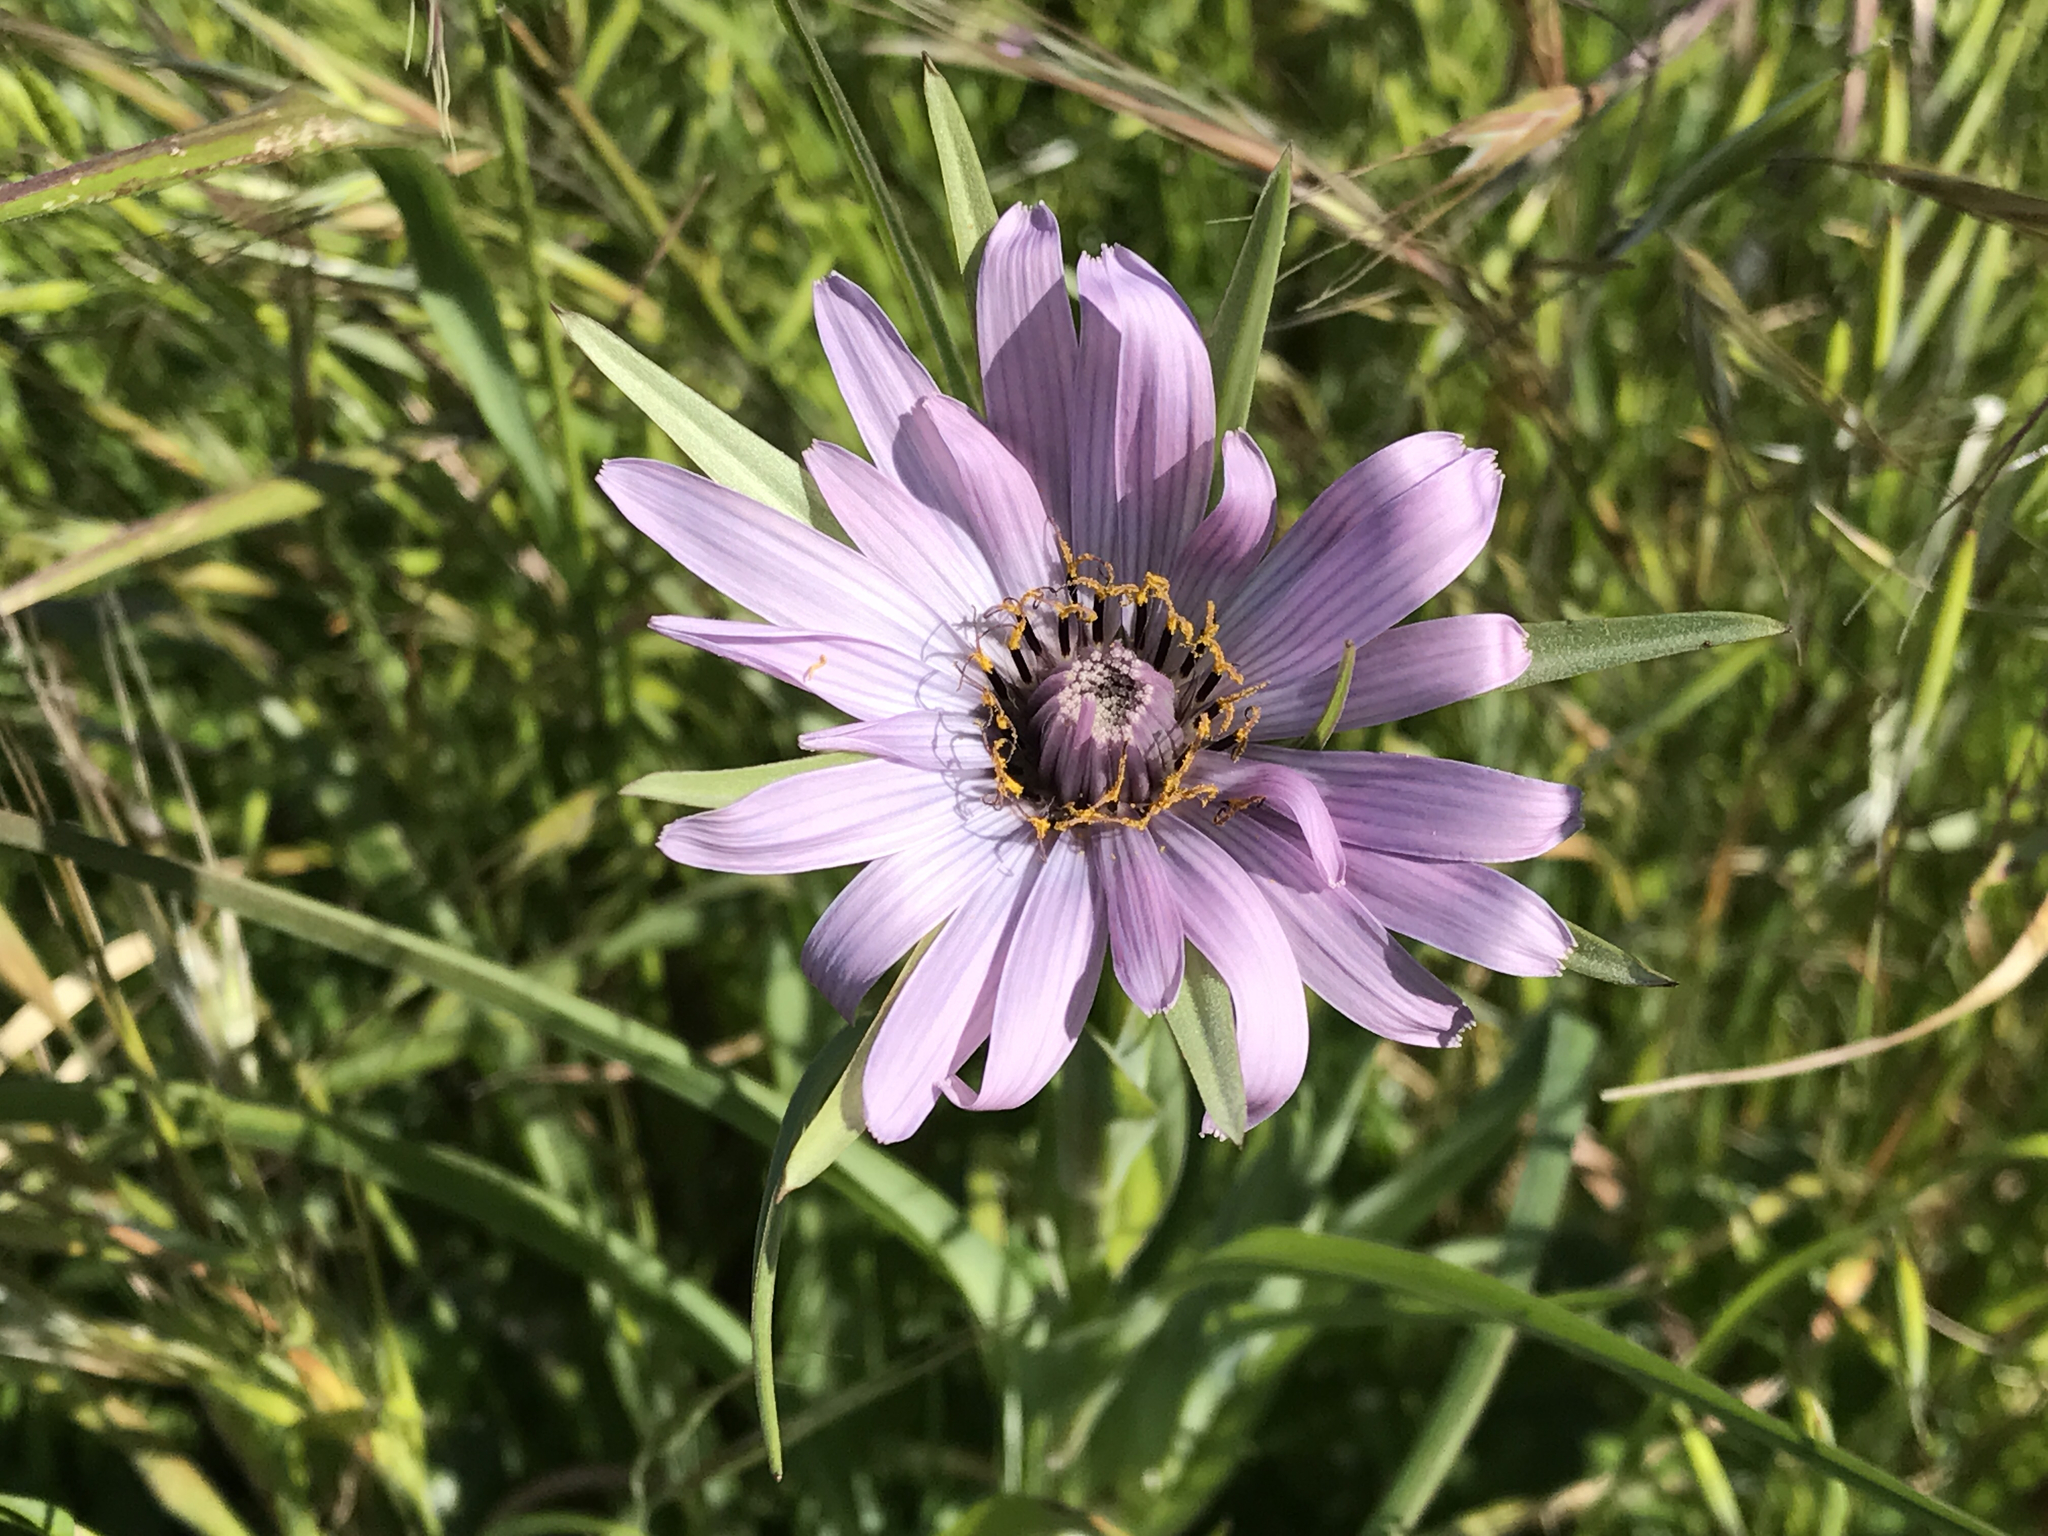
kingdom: Plantae
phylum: Tracheophyta
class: Magnoliopsida
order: Asterales
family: Asteraceae
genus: Tragopogon
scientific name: Tragopogon porrifolius
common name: Salsify
